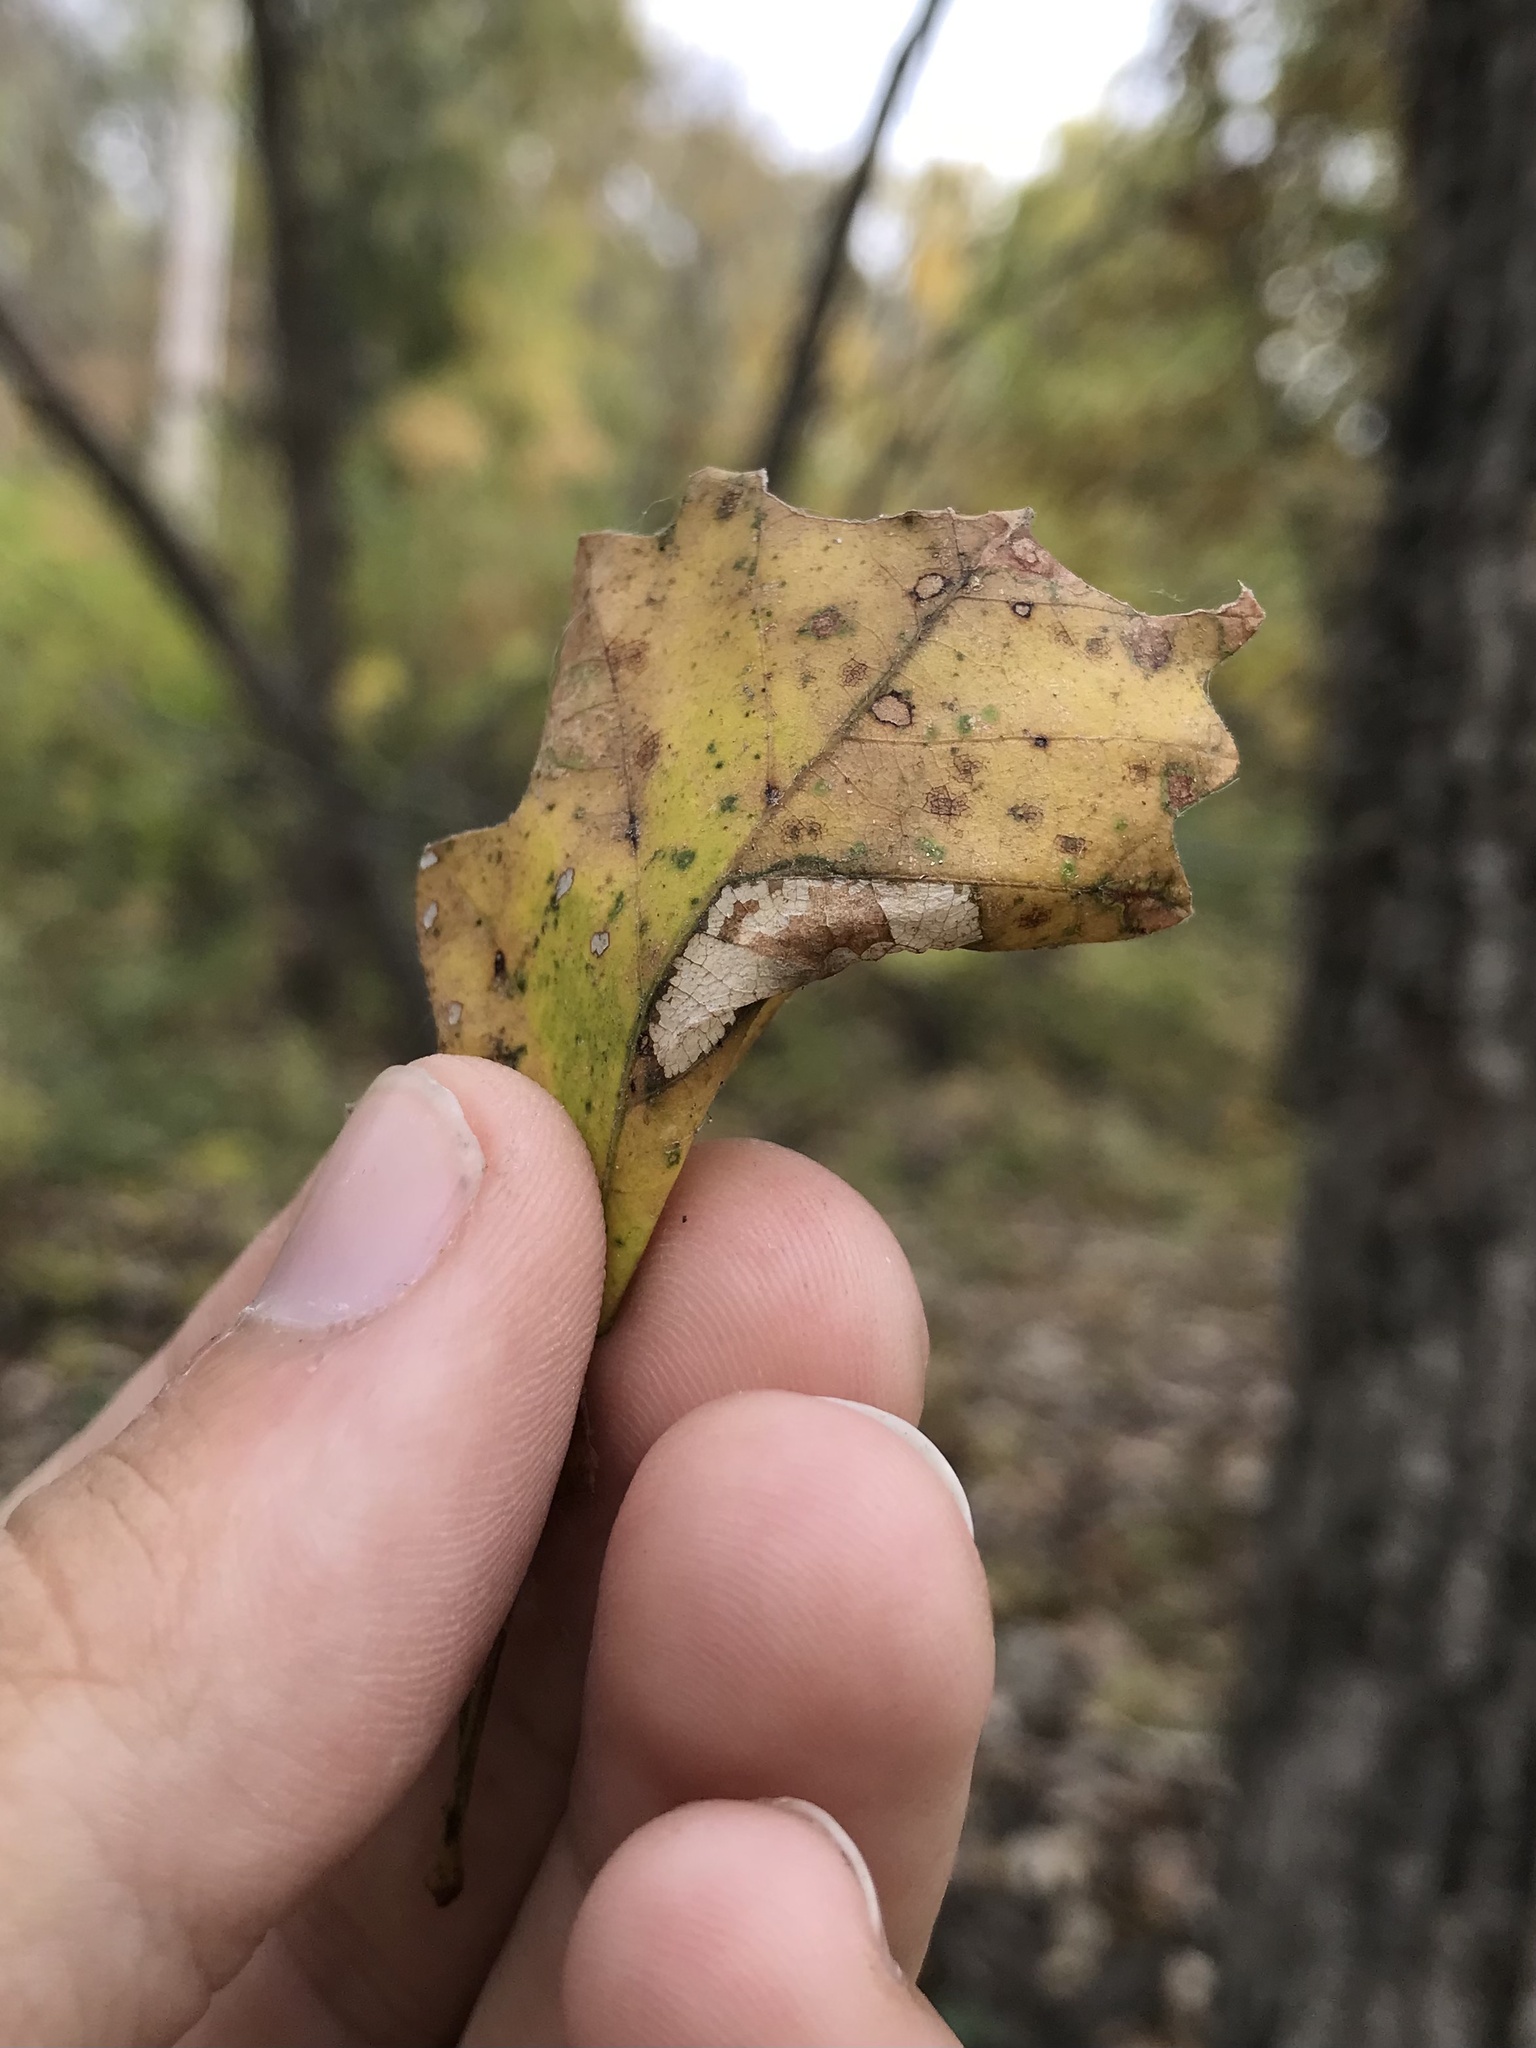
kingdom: Animalia
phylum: Arthropoda
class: Insecta
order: Lepidoptera
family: Gracillariidae
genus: Phyllonorycter
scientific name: Phyllonorycter aeriferella
